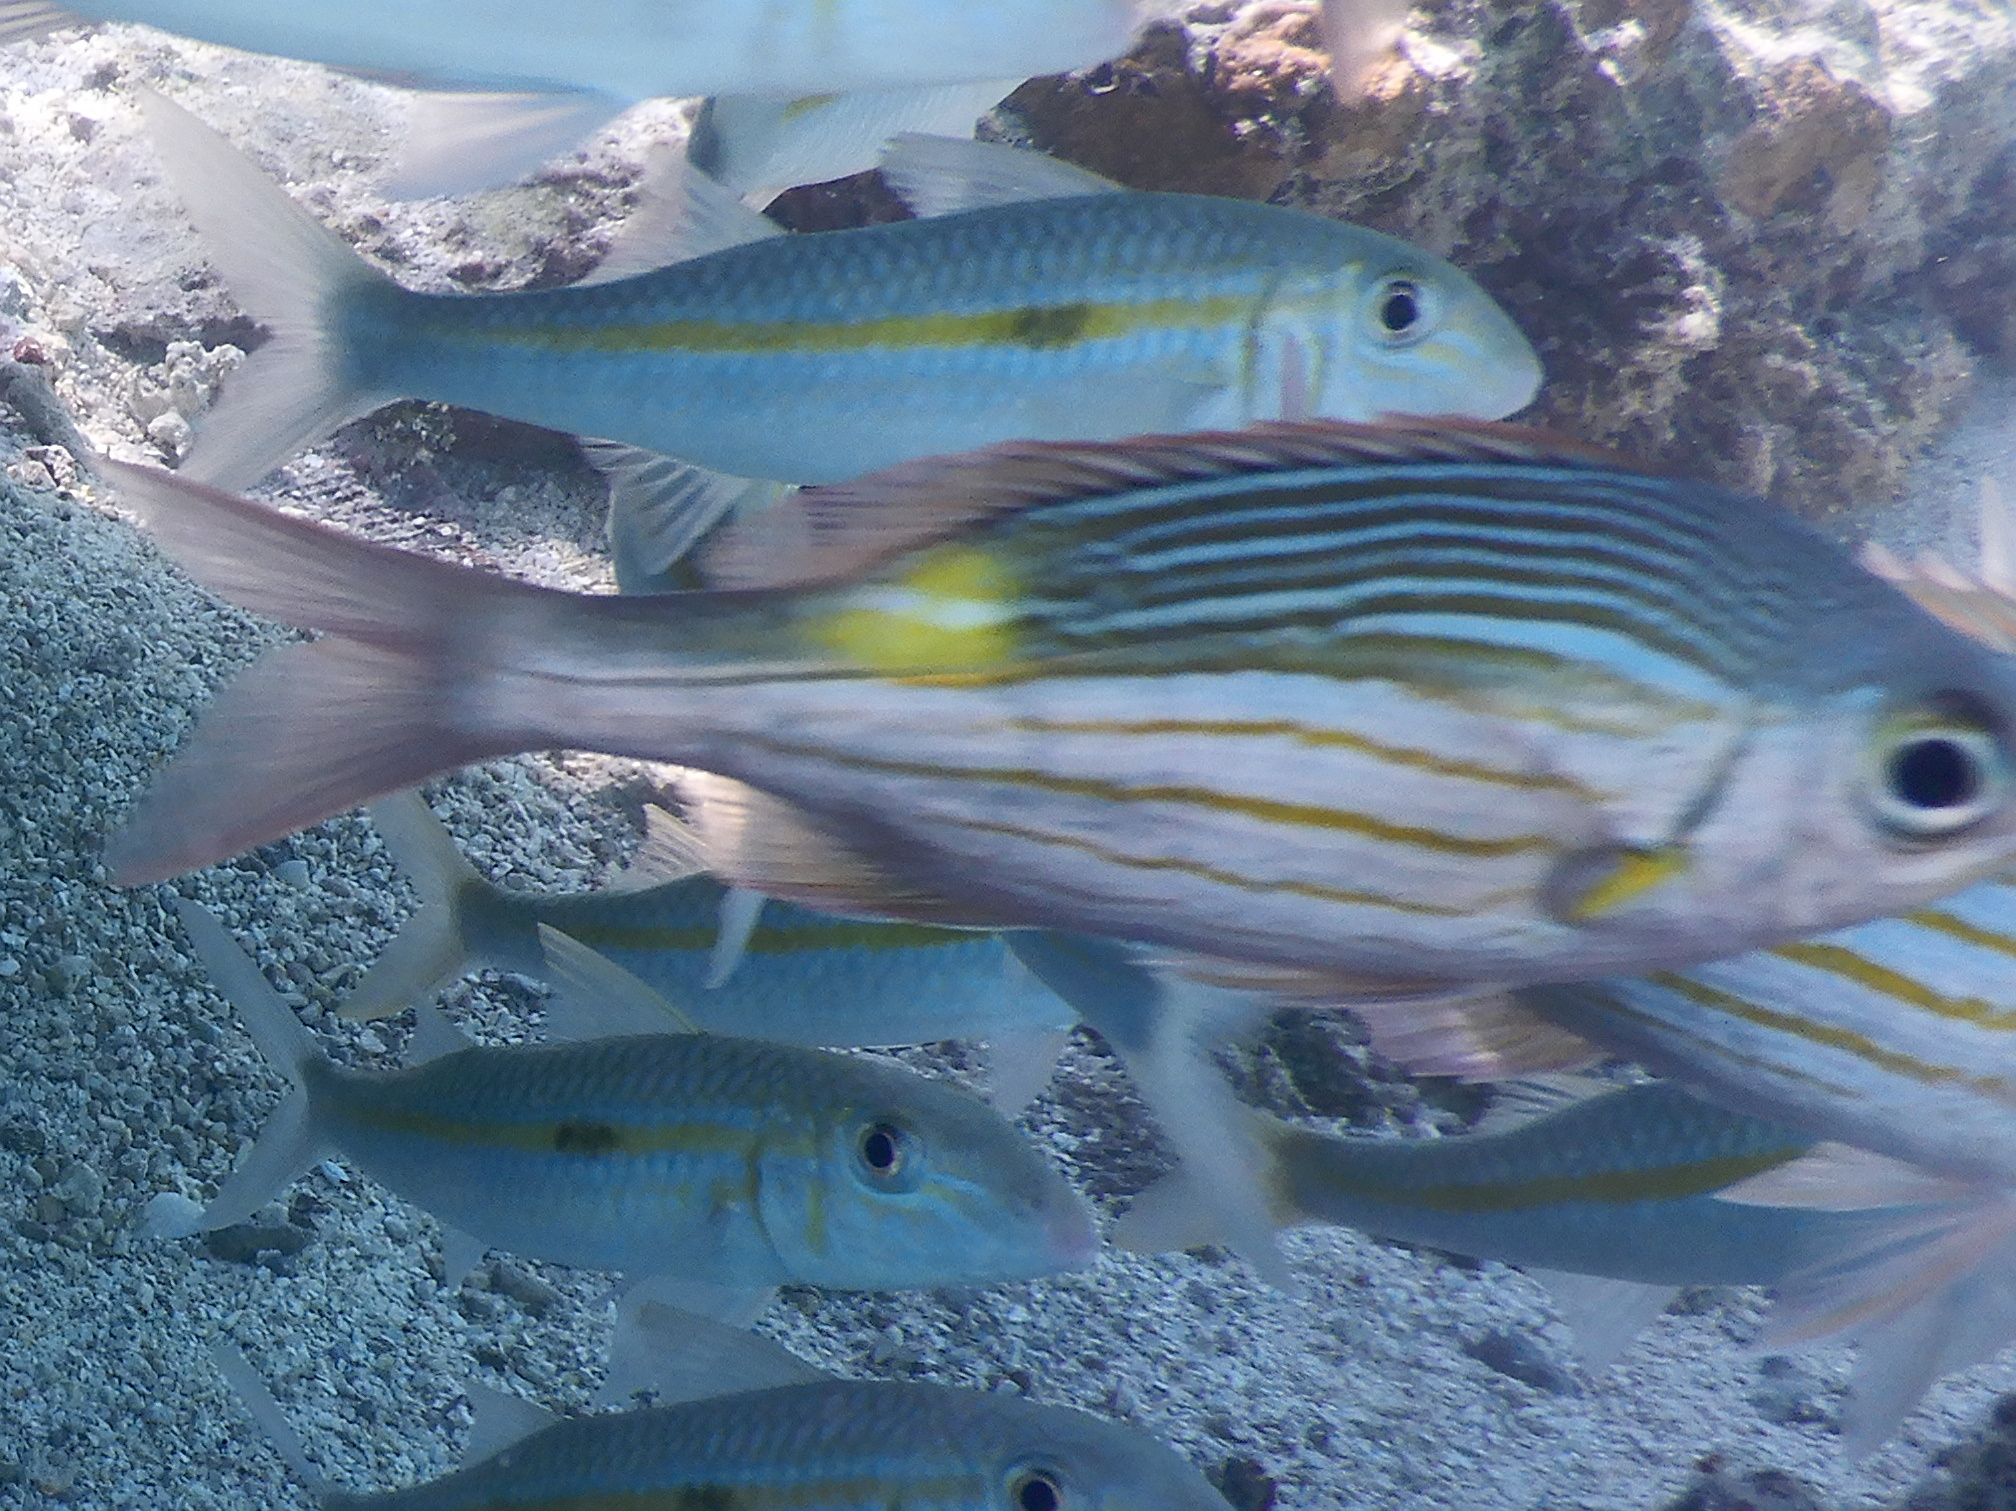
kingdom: Animalia
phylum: Chordata
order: Perciformes
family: Lethrinidae
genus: Gnathodentex
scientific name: Gnathodentex aureolineatus
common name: Gold-lined sea bream
